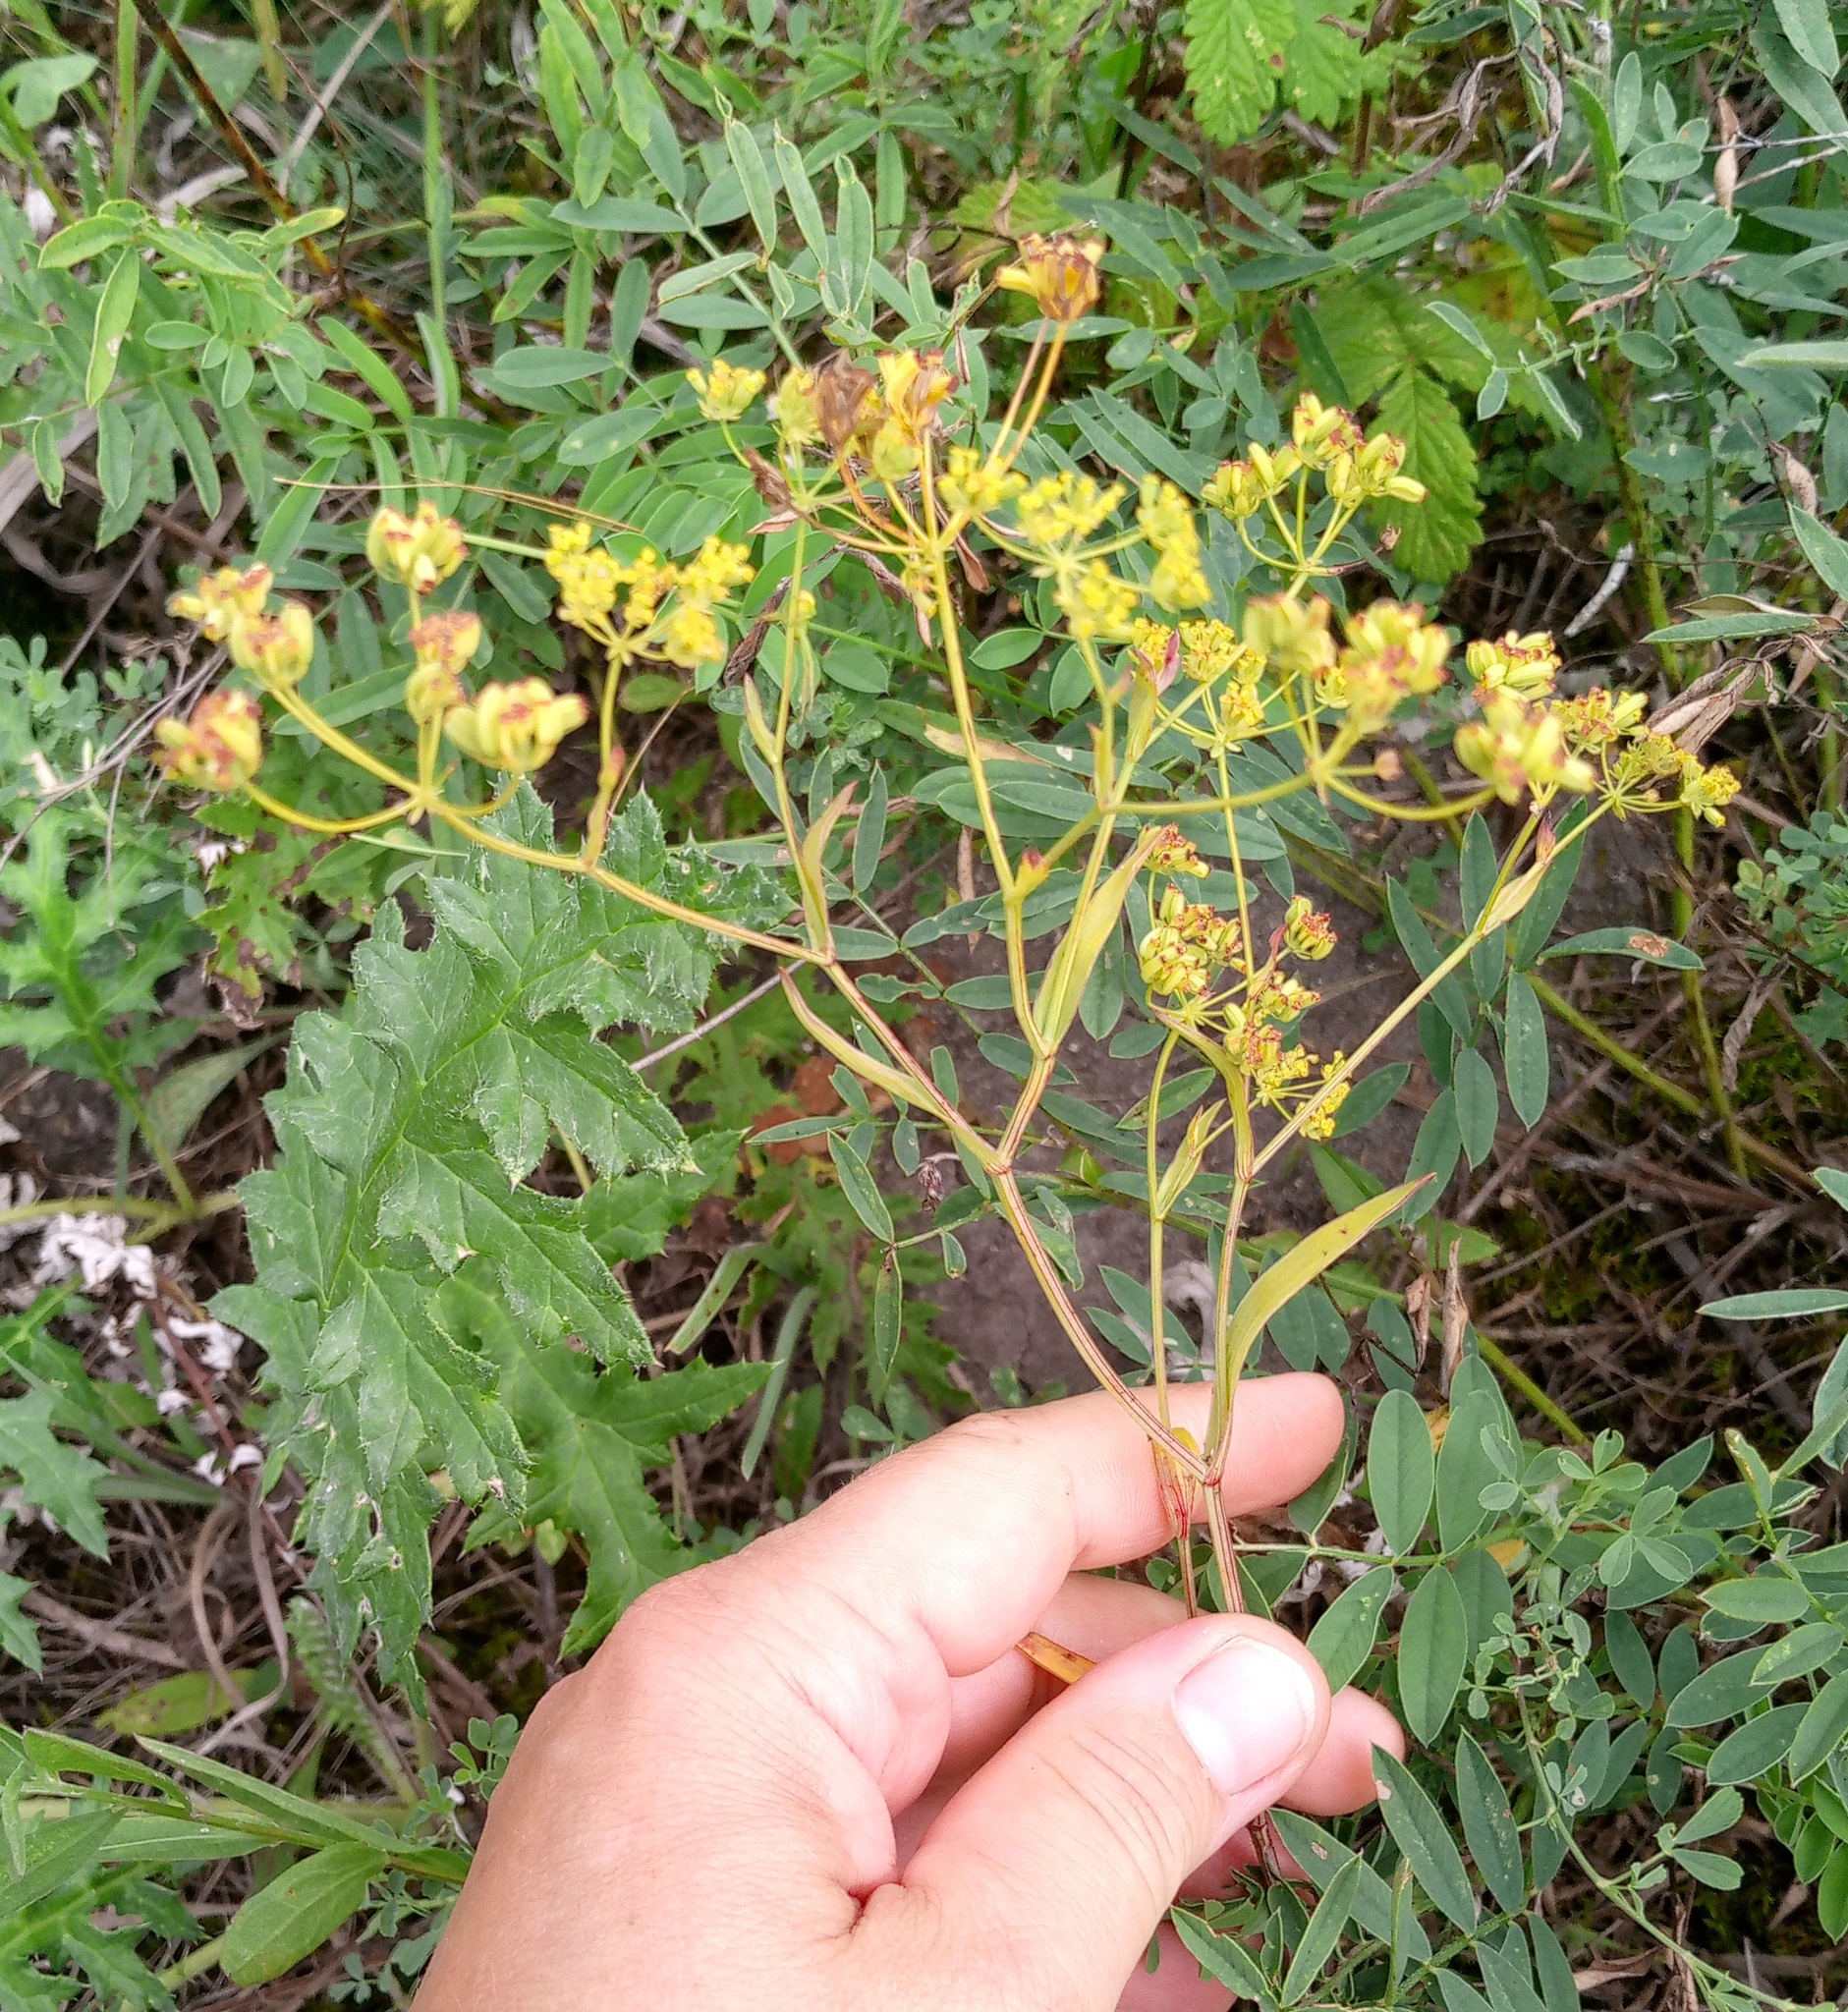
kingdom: Plantae
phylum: Tracheophyta
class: Magnoliopsida
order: Apiales
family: Apiaceae
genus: Bupleurum
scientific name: Bupleurum falcatum
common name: Sickle-leaved hare's-ear
